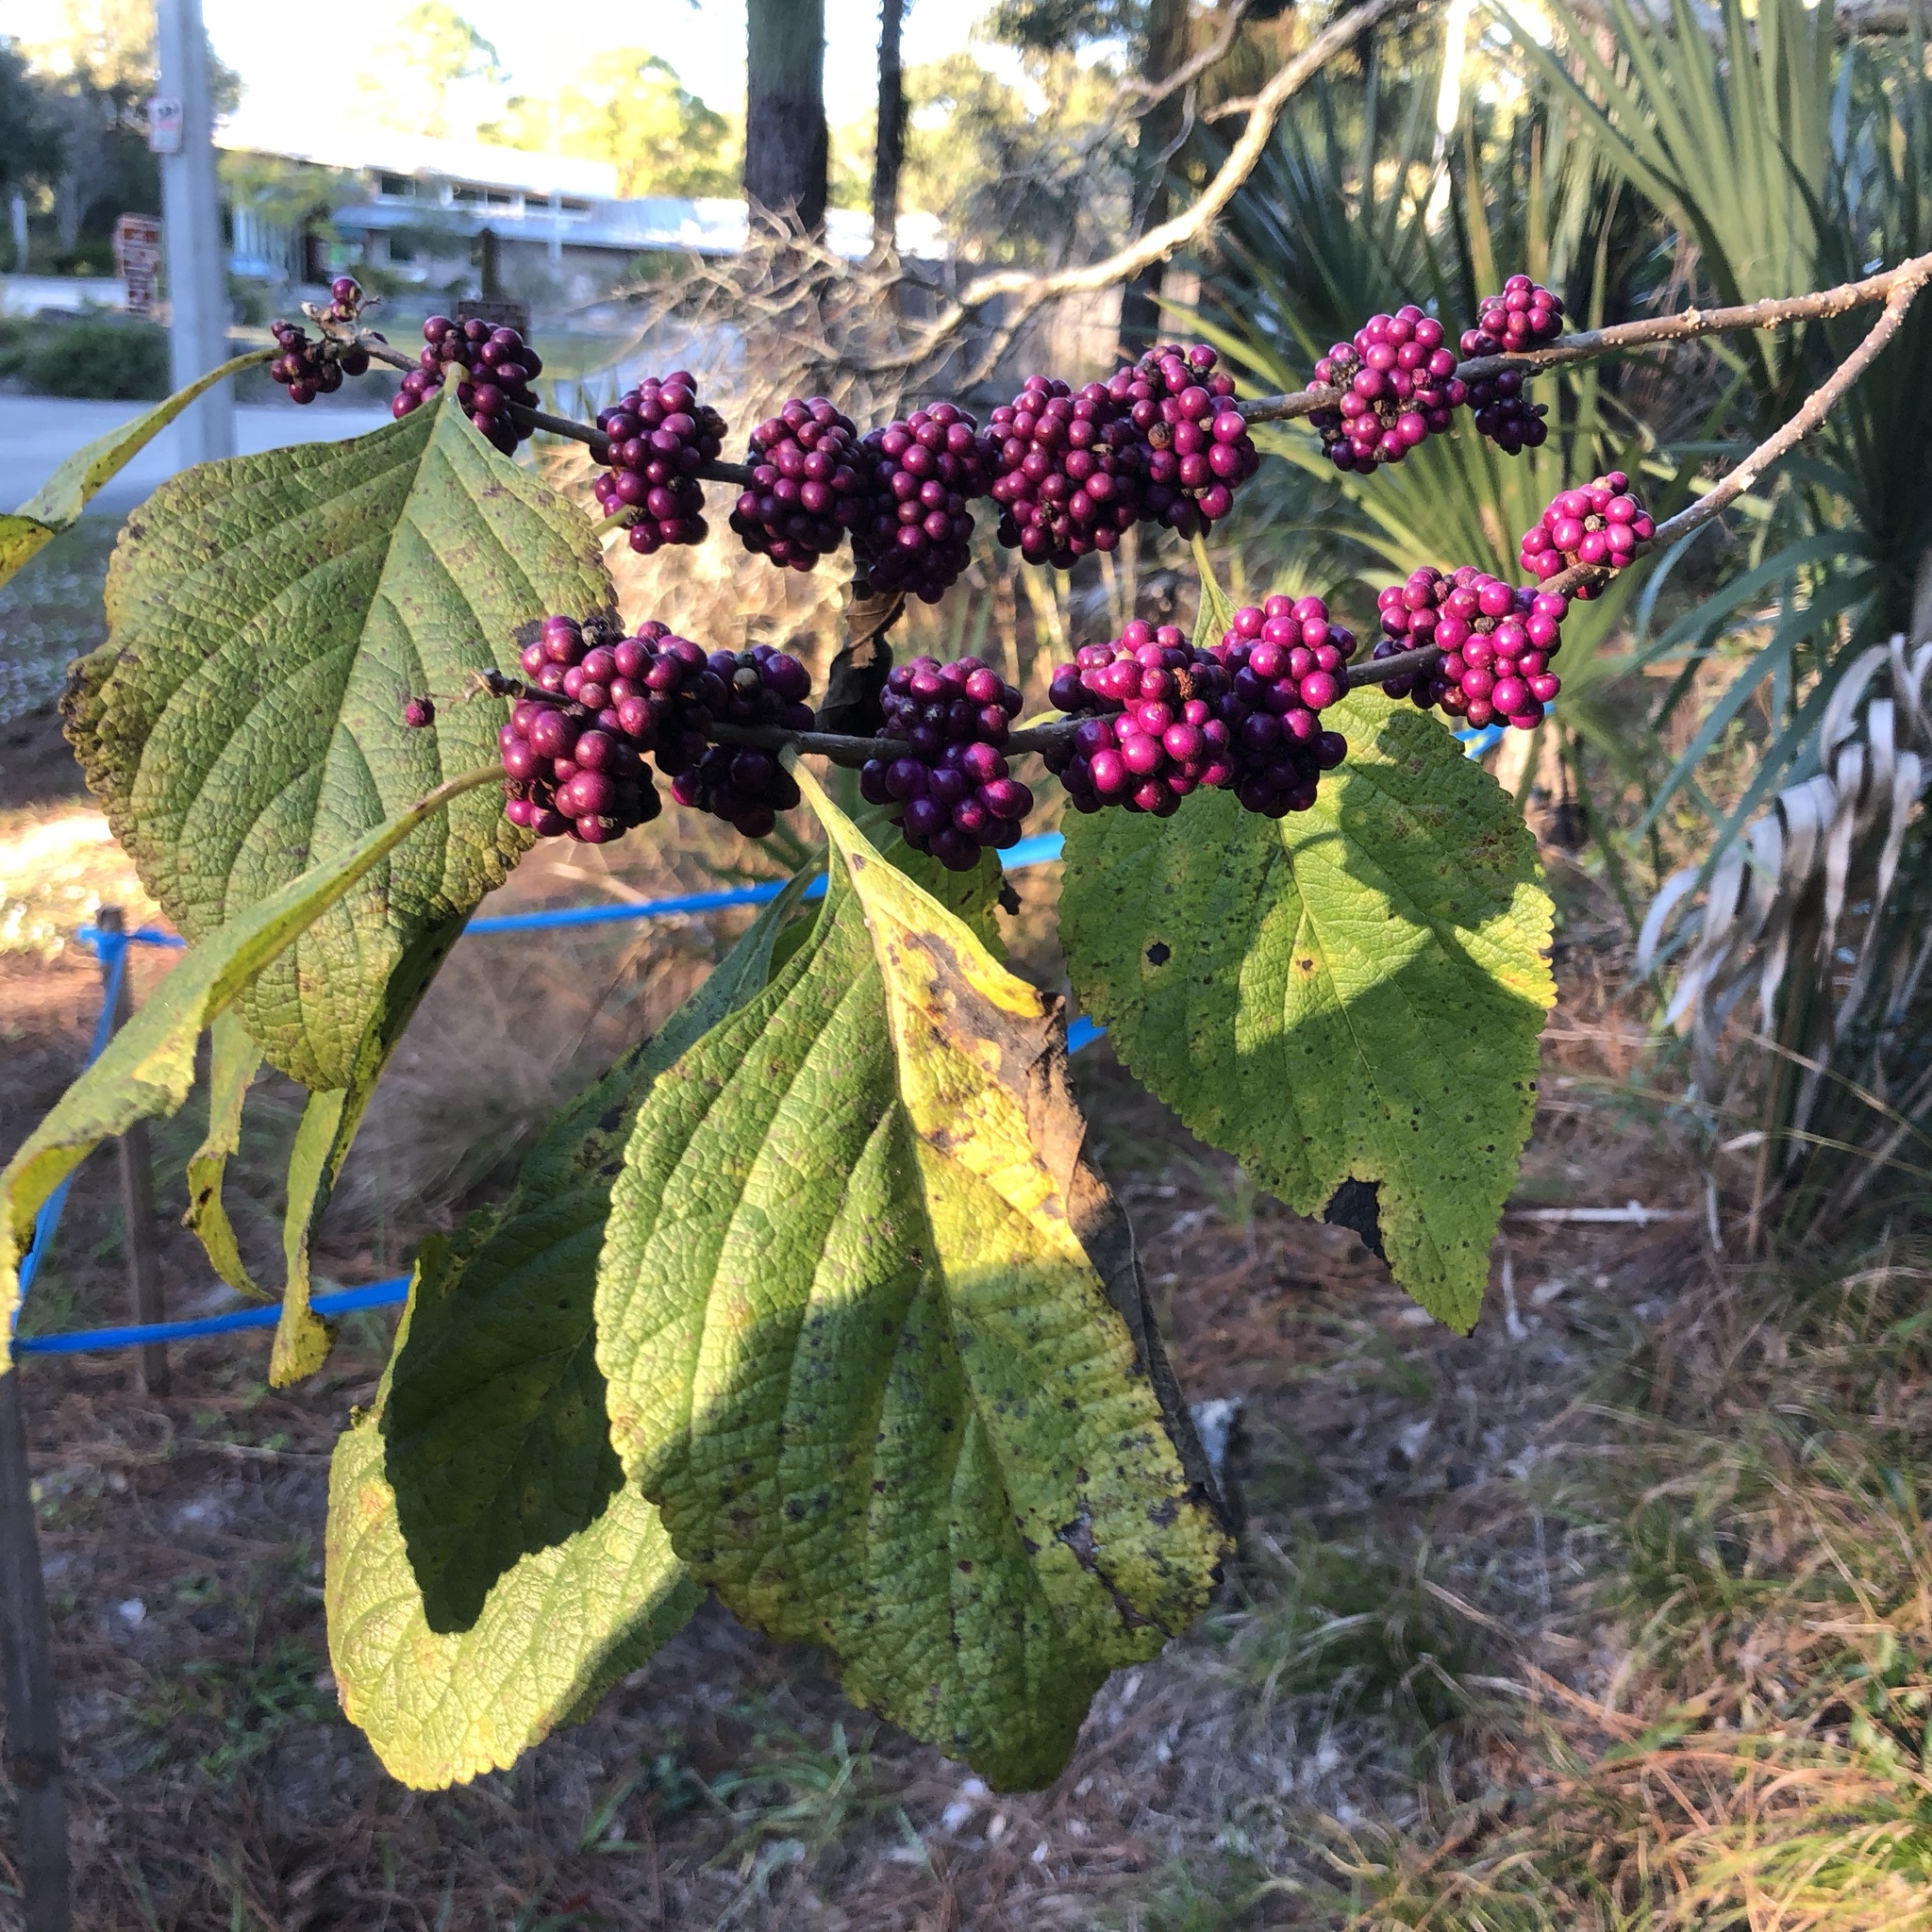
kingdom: Plantae
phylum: Tracheophyta
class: Magnoliopsida
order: Lamiales
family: Lamiaceae
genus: Callicarpa
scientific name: Callicarpa americana
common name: American beautyberry
